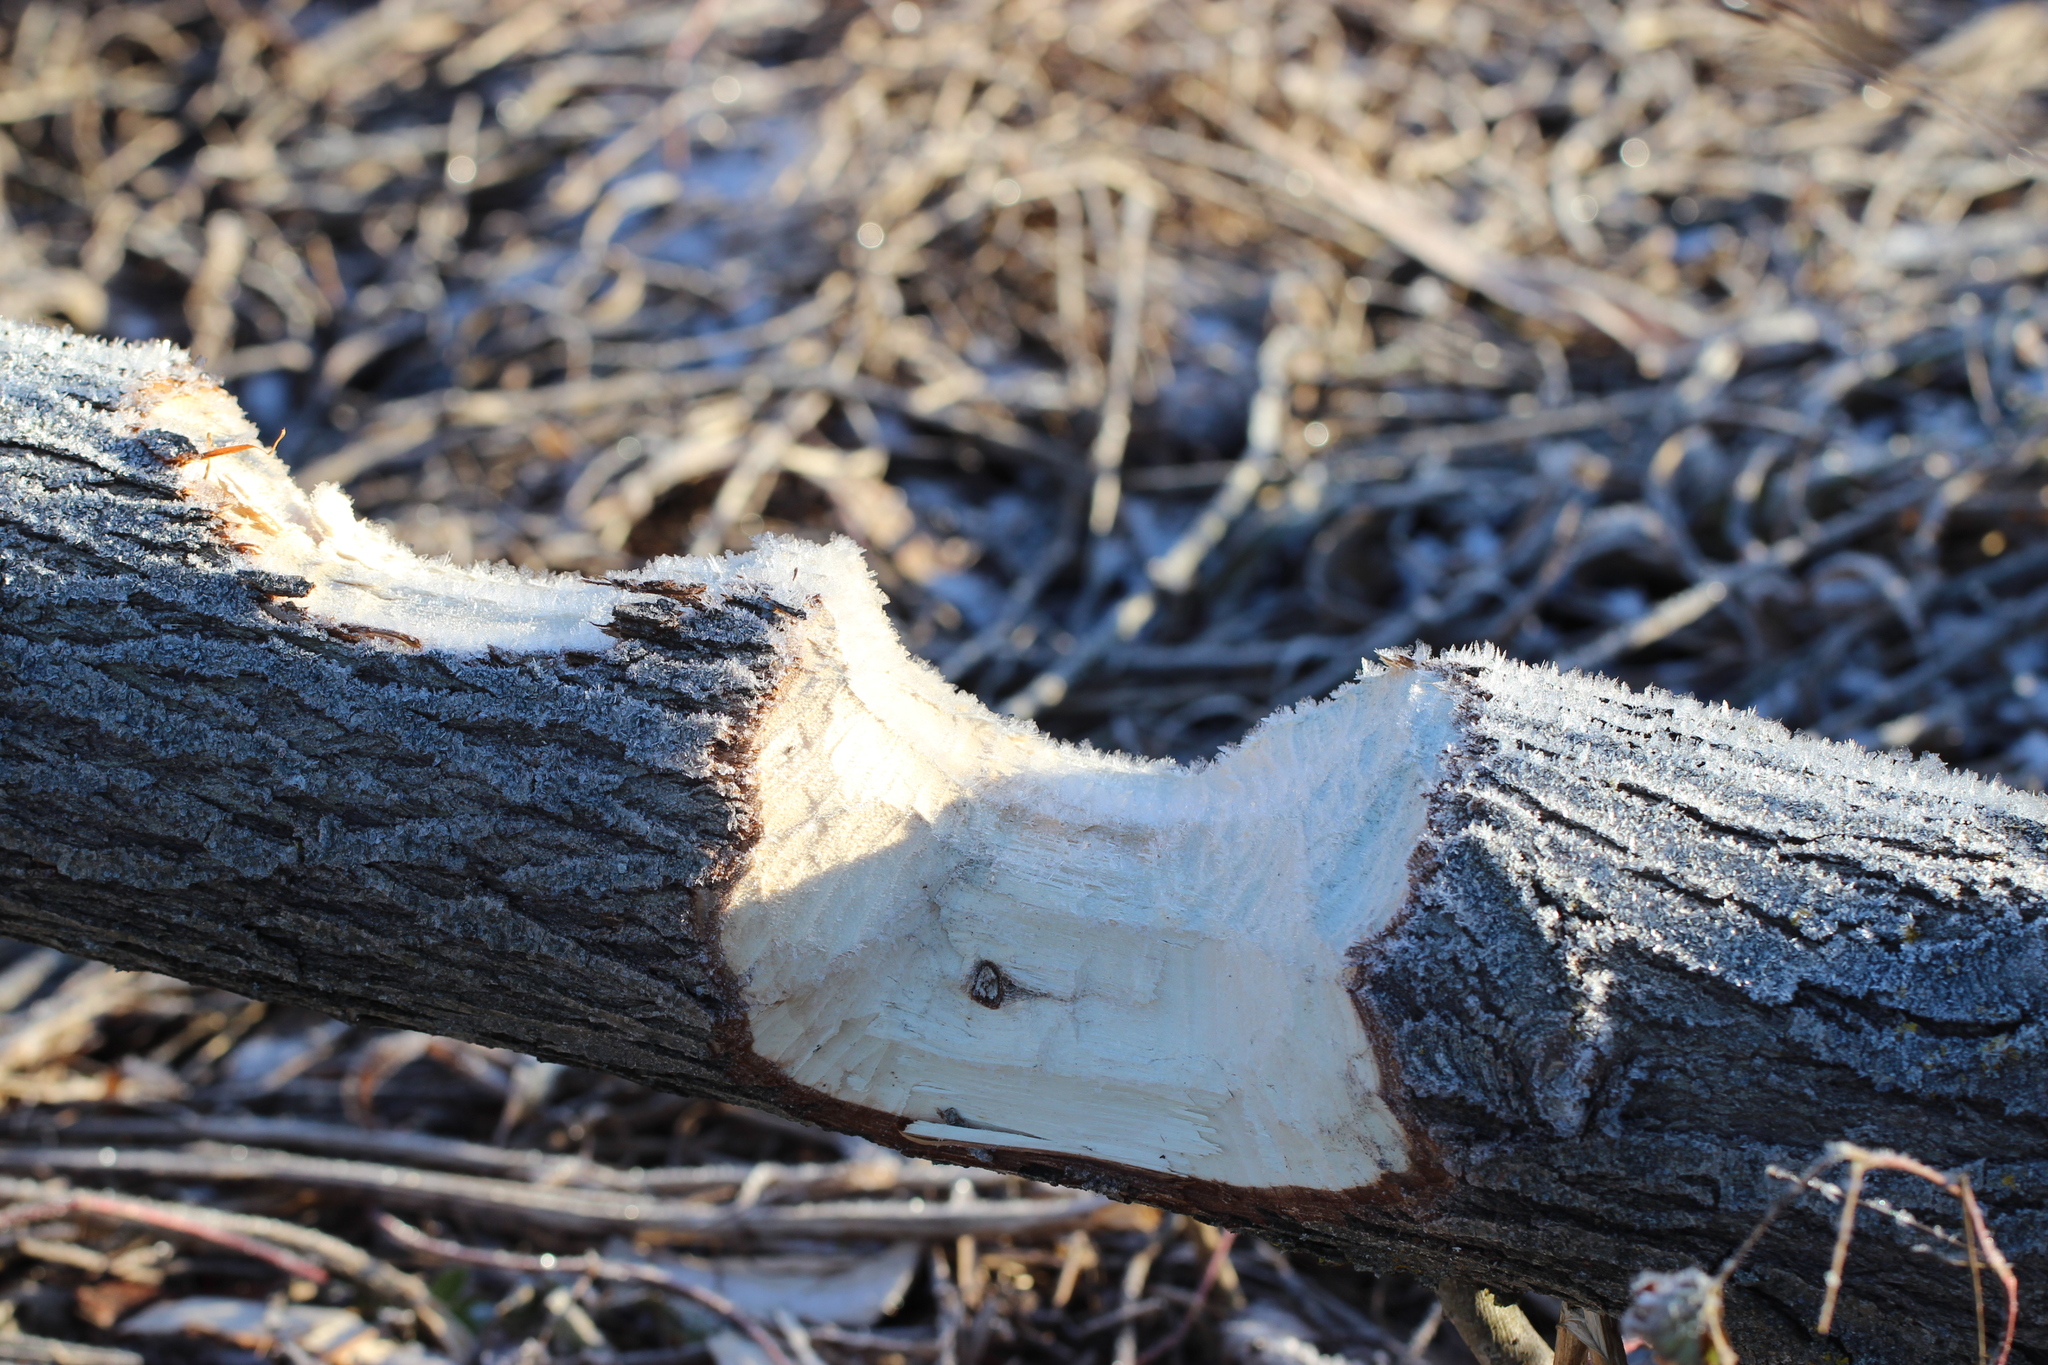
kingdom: Animalia
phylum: Chordata
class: Mammalia
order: Rodentia
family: Castoridae
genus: Castor
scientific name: Castor fiber
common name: Eurasian beaver
